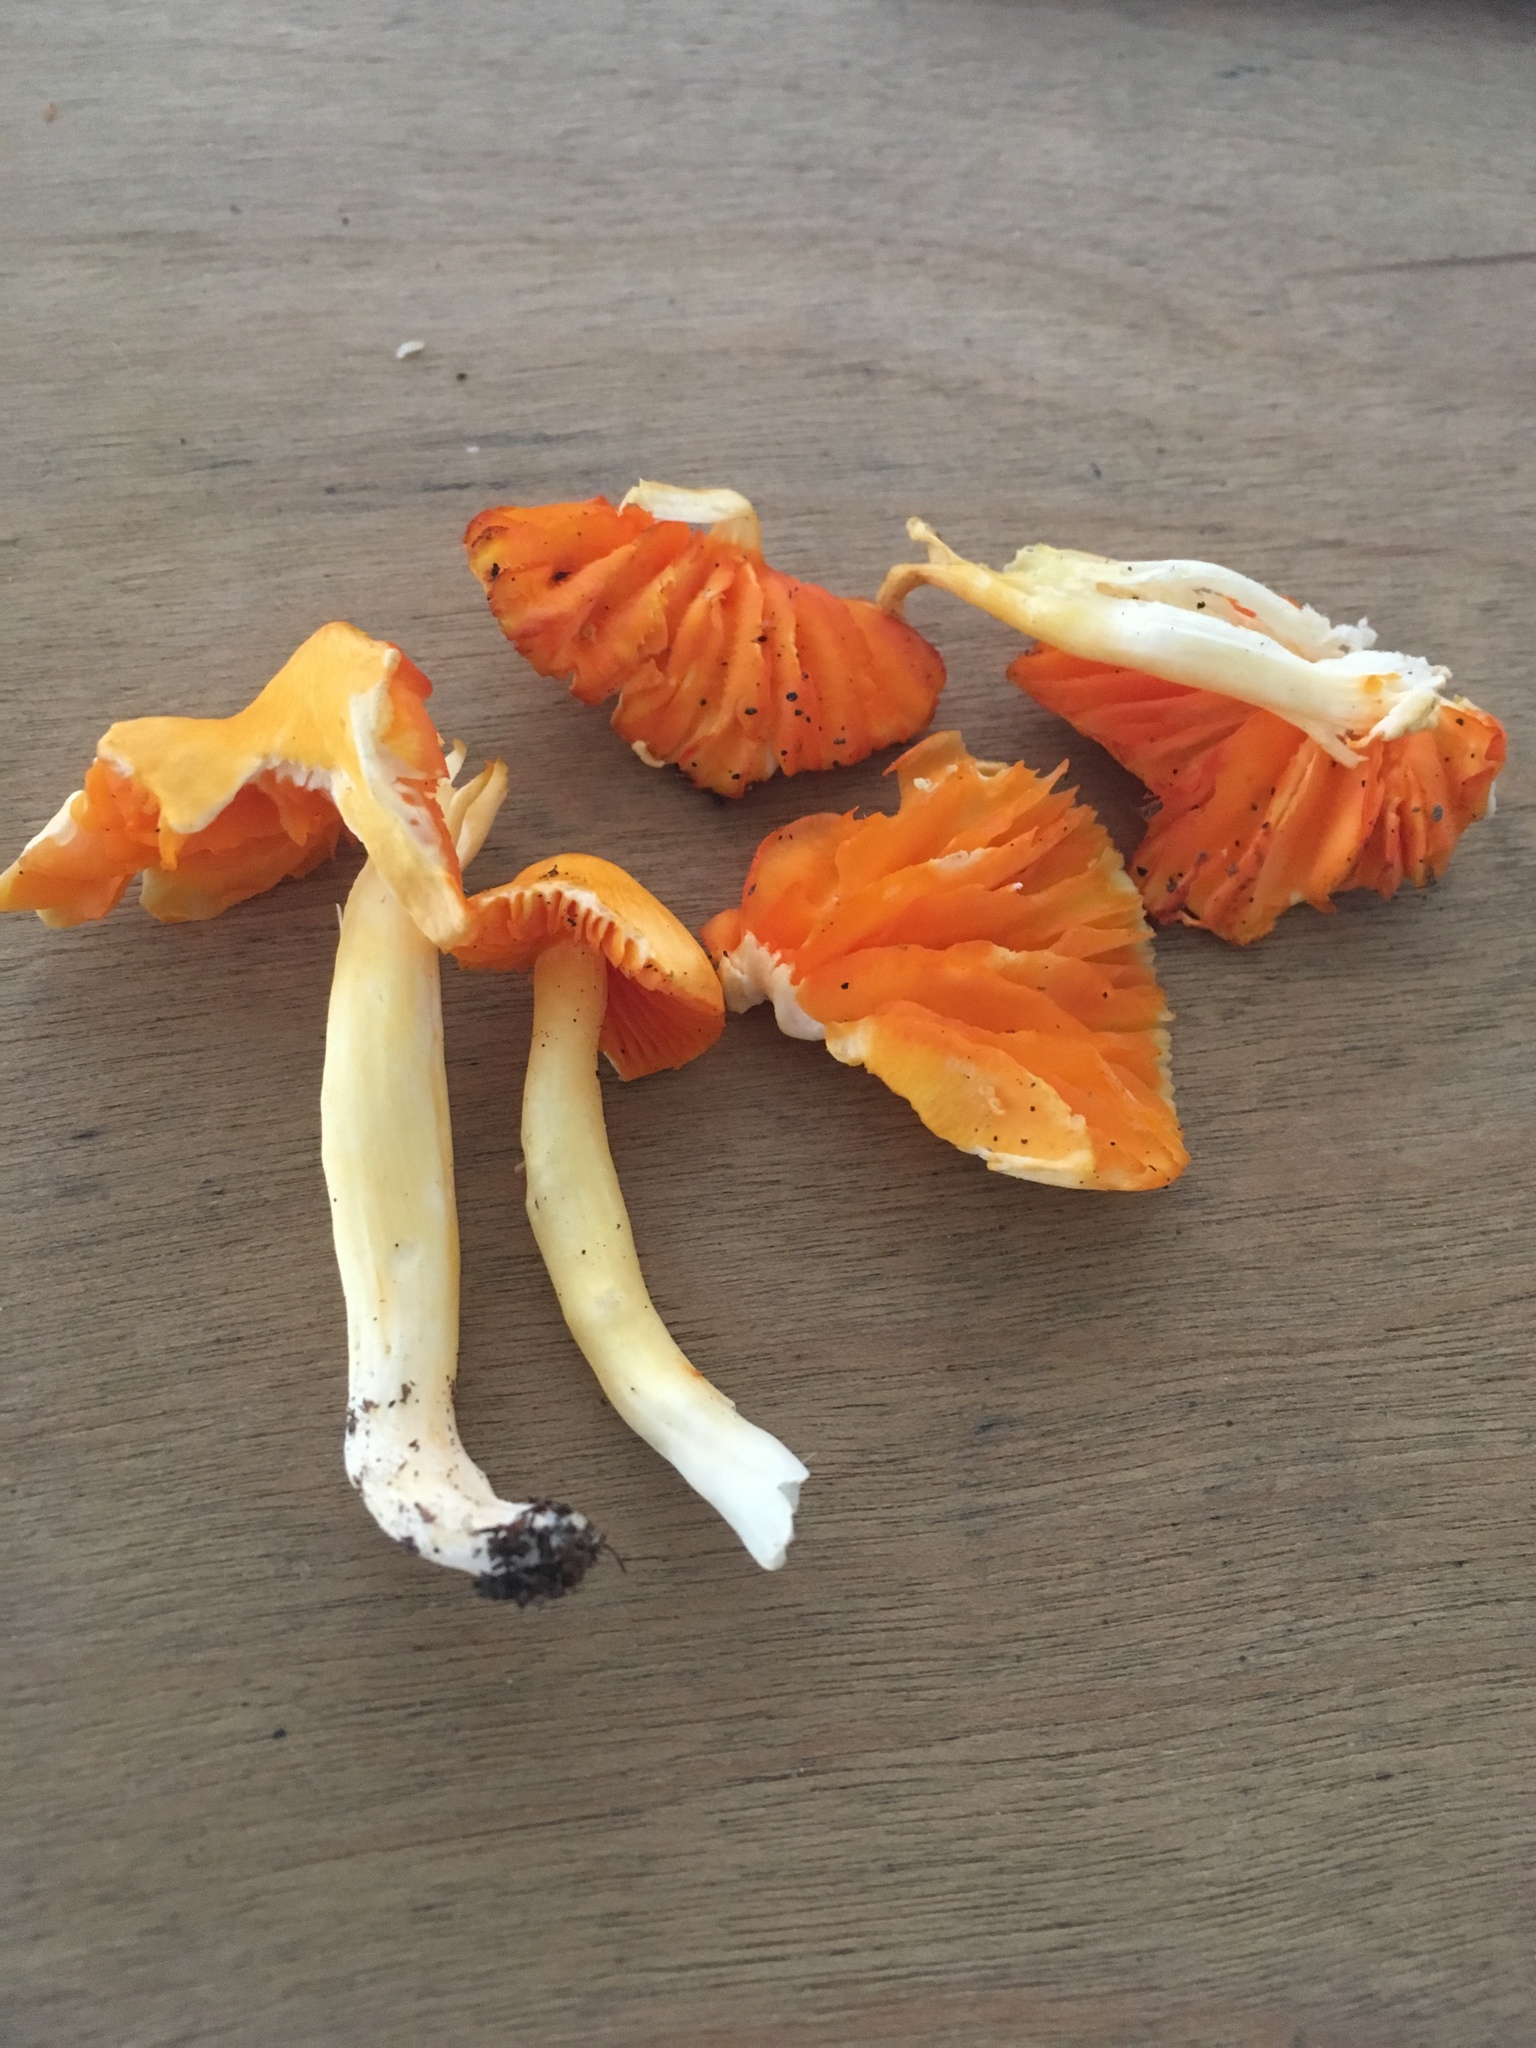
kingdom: Fungi
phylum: Basidiomycota
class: Agaricomycetes
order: Agaricales
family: Hygrophoraceae
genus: Humidicutis
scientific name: Humidicutis marginata
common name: Orange gilled waxcap
